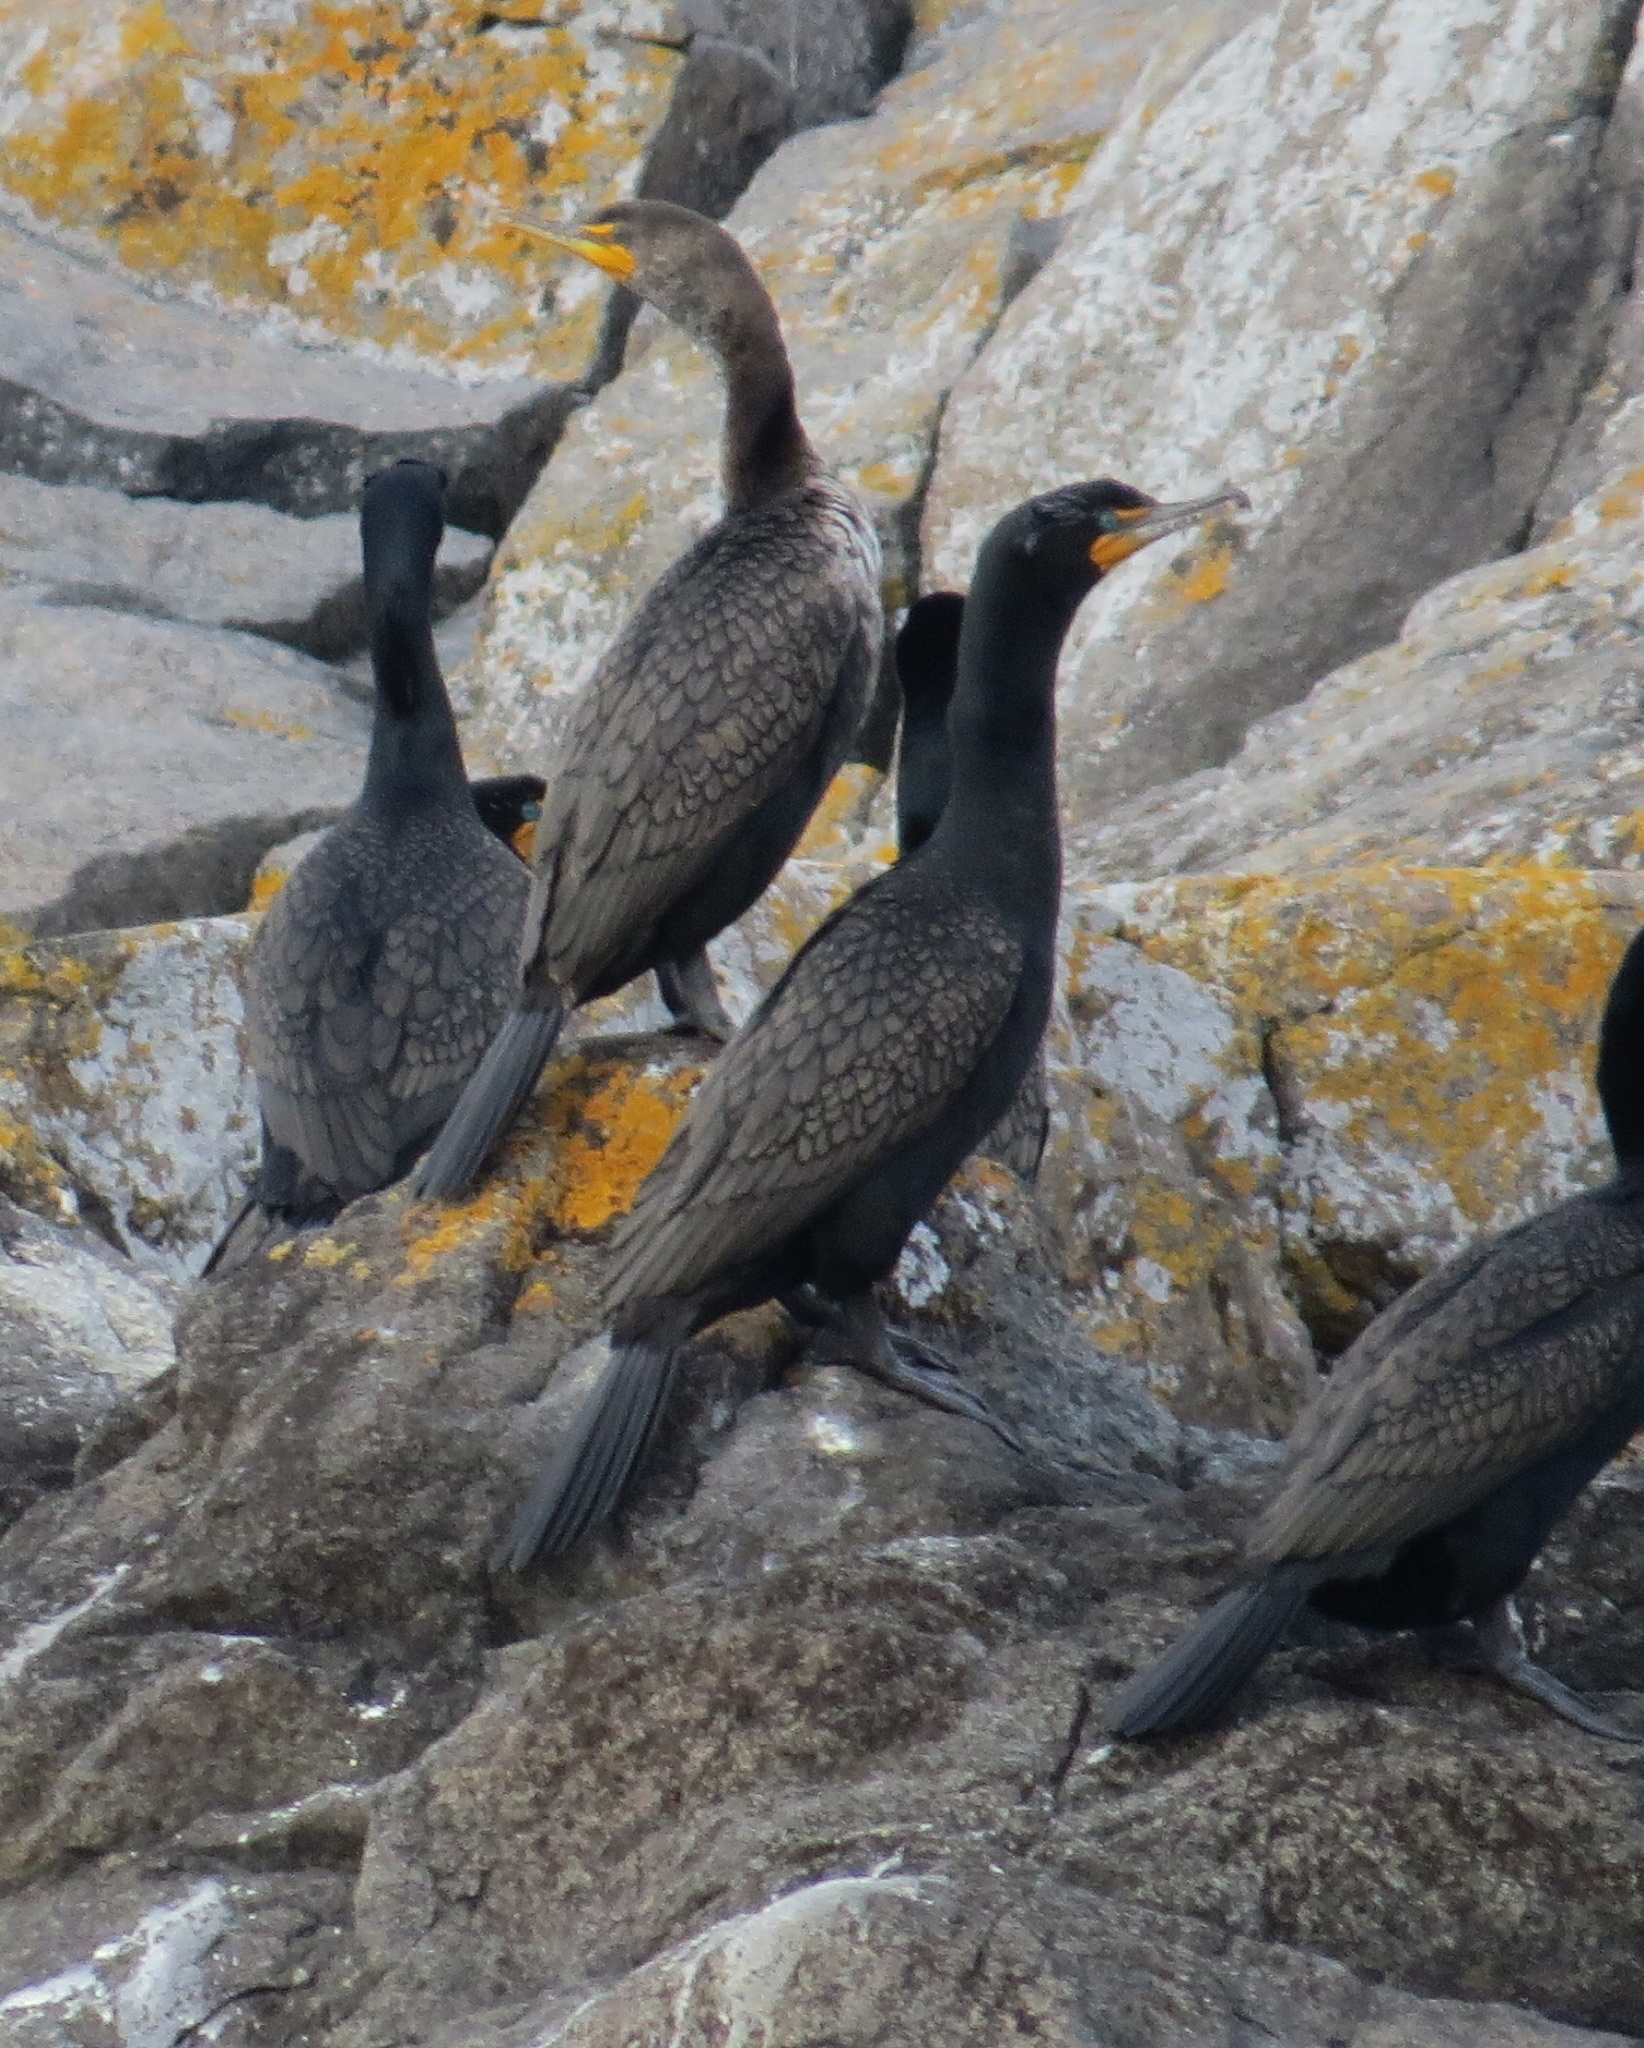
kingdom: Animalia
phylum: Chordata
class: Aves
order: Suliformes
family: Phalacrocoracidae
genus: Phalacrocorax
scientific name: Phalacrocorax auritus
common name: Double-crested cormorant
